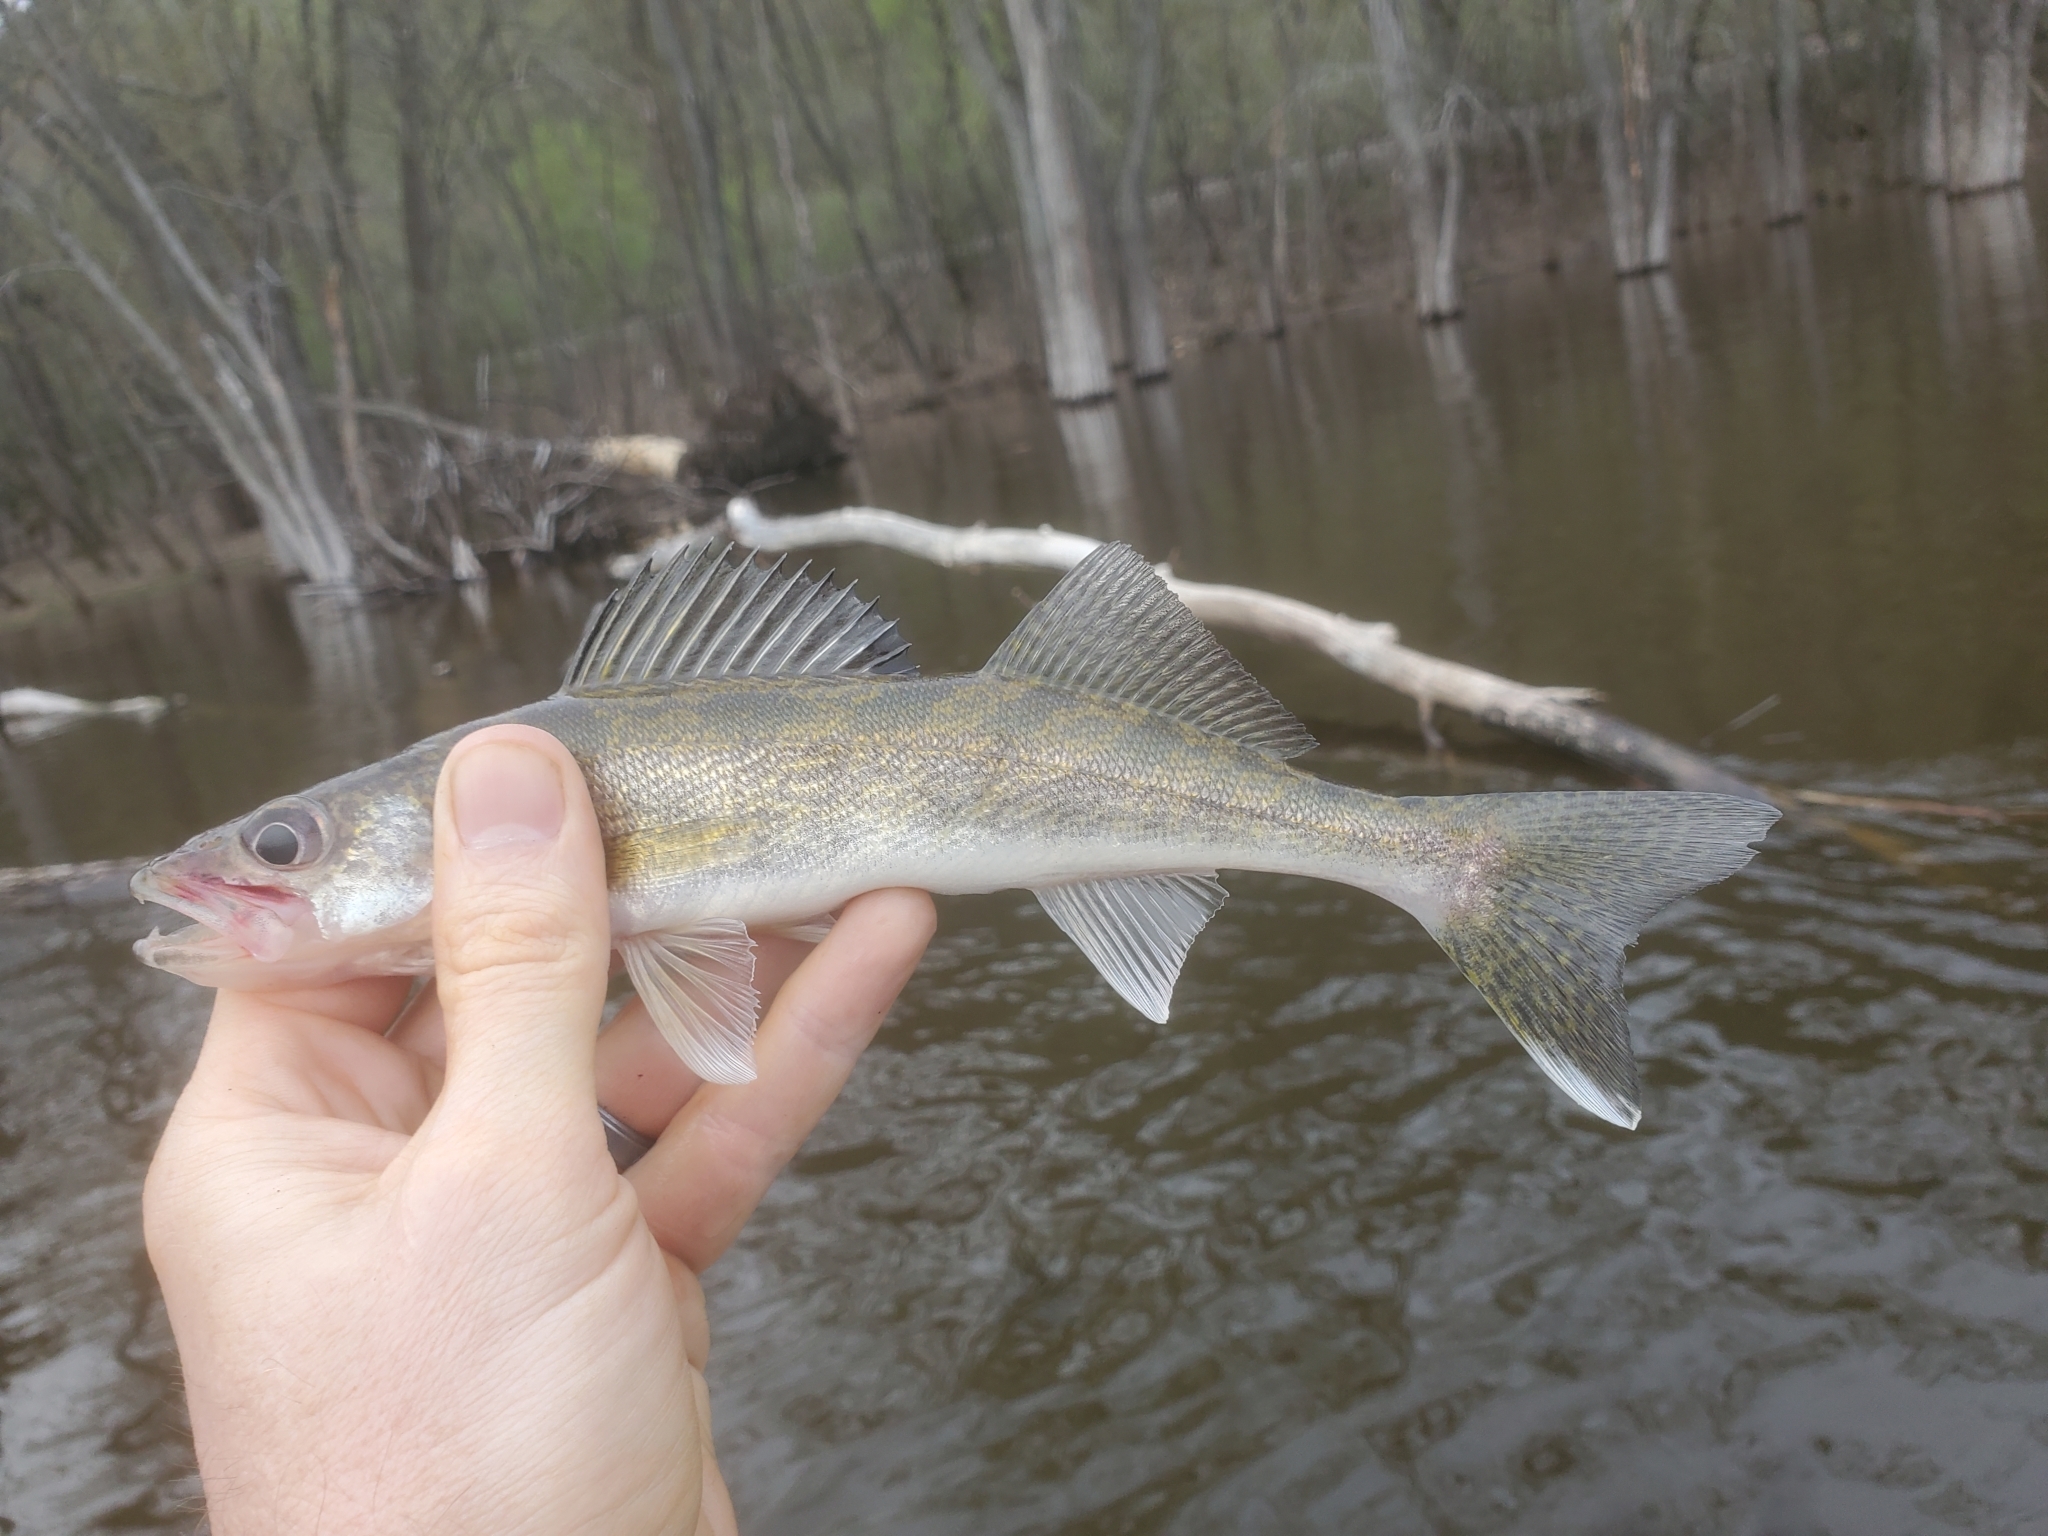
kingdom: Animalia
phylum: Chordata
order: Perciformes
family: Percidae
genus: Sander
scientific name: Sander vitreus
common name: Walleye
